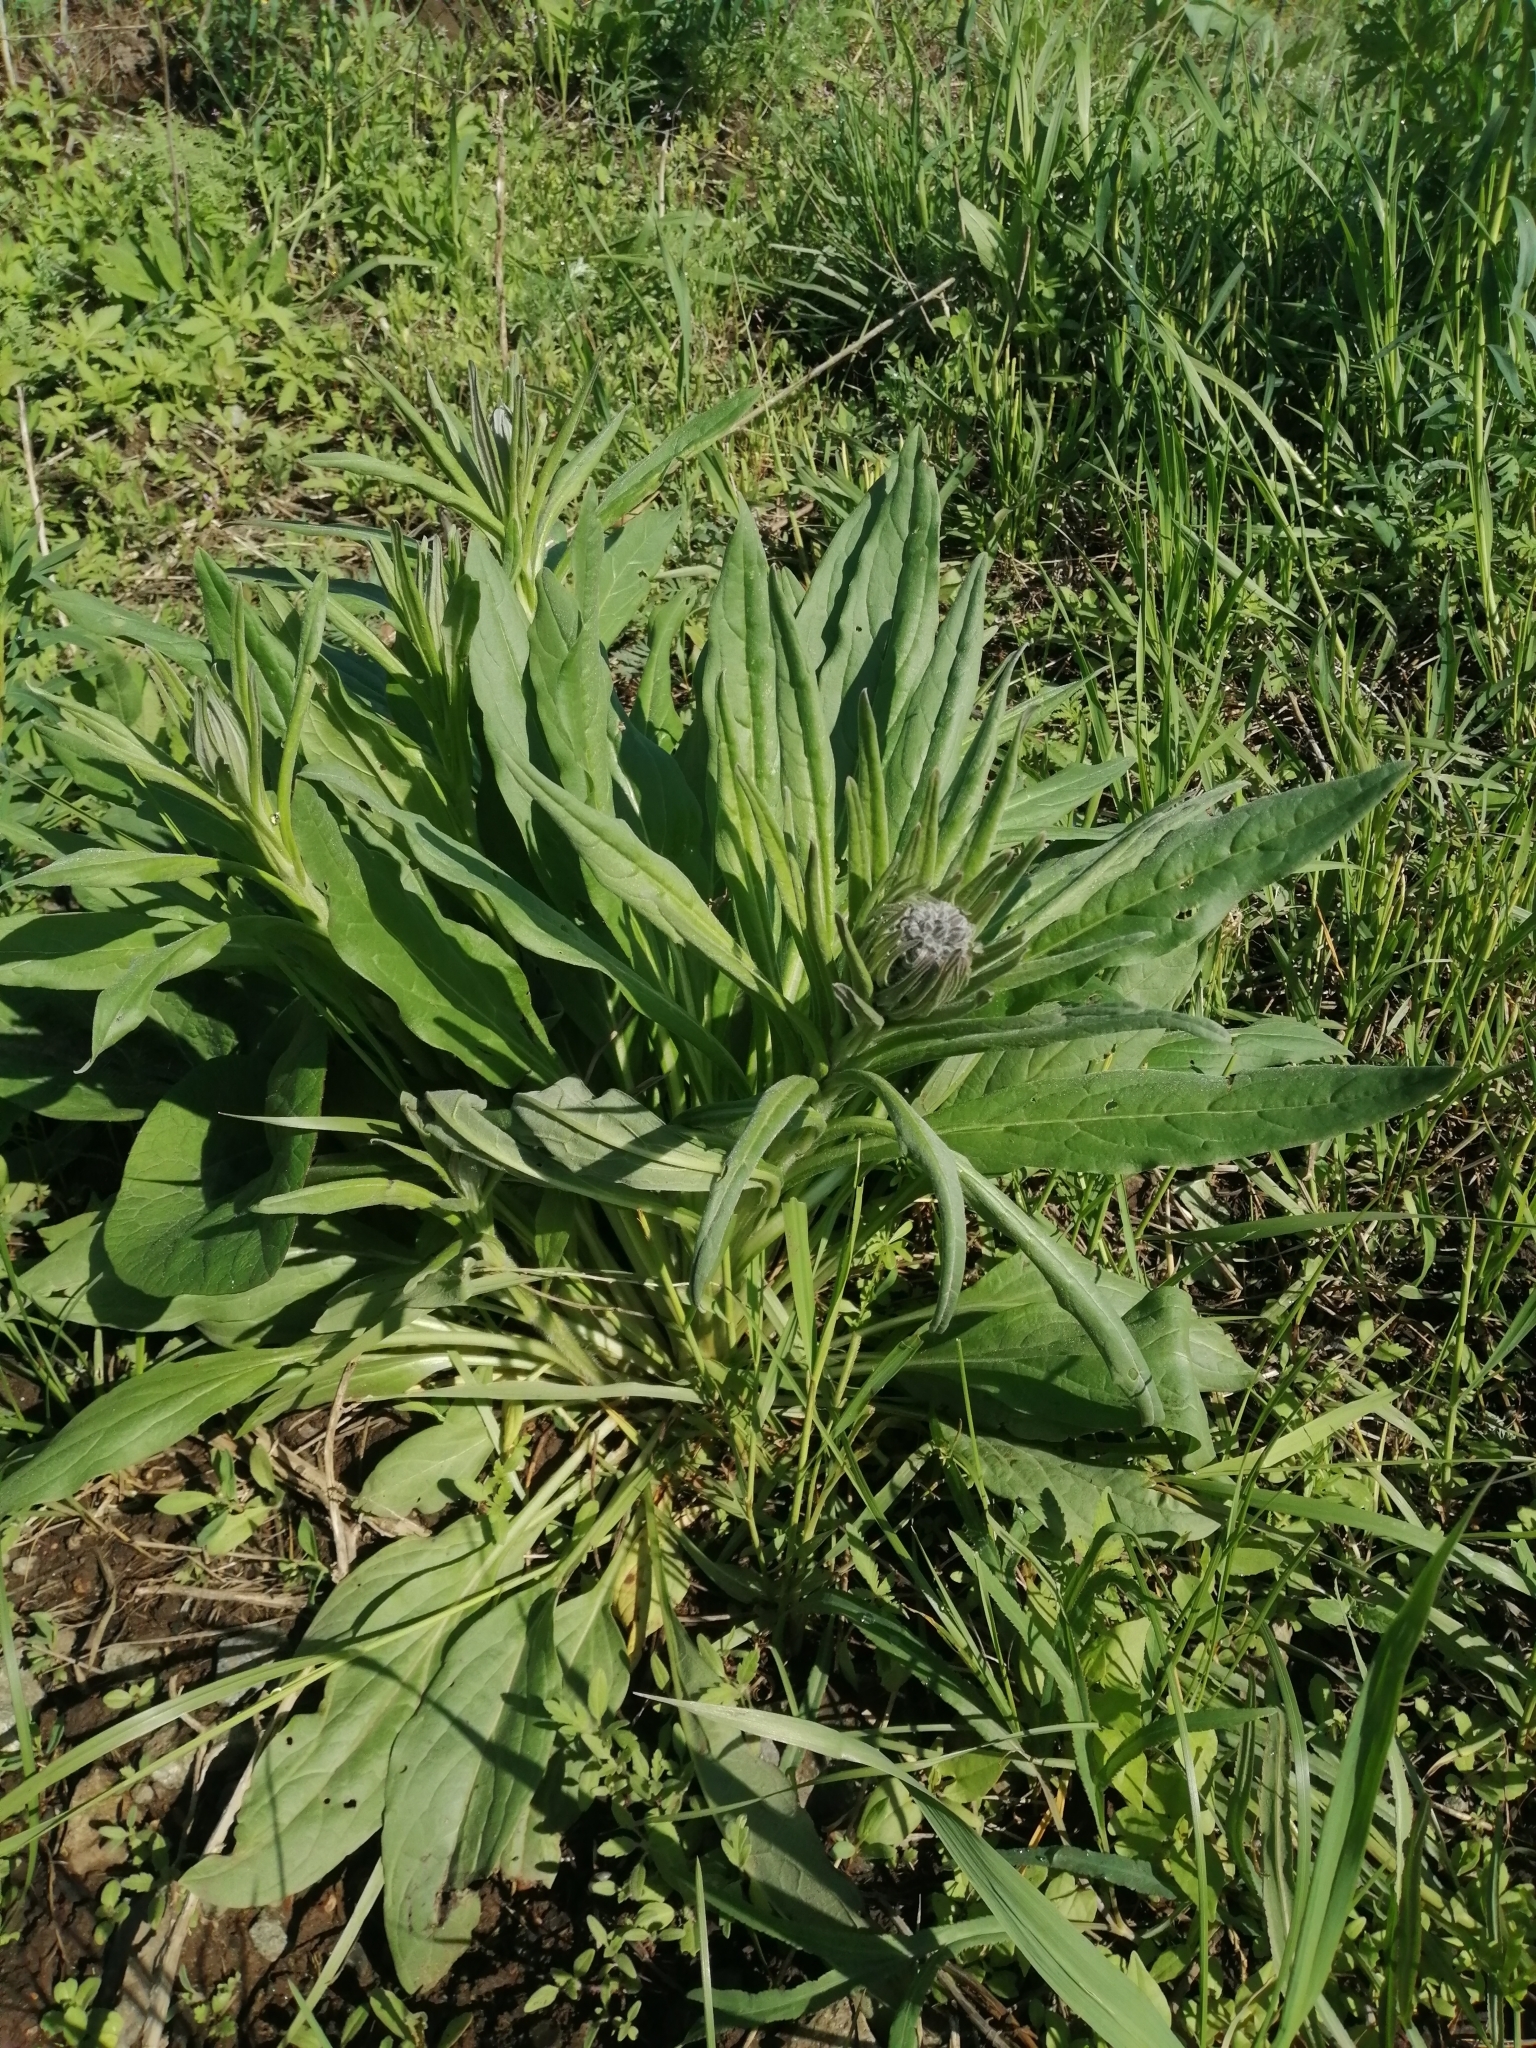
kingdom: Plantae
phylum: Tracheophyta
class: Magnoliopsida
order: Boraginales
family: Boraginaceae
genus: Cynoglossum
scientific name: Cynoglossum officinale
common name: Hound's-tongue
